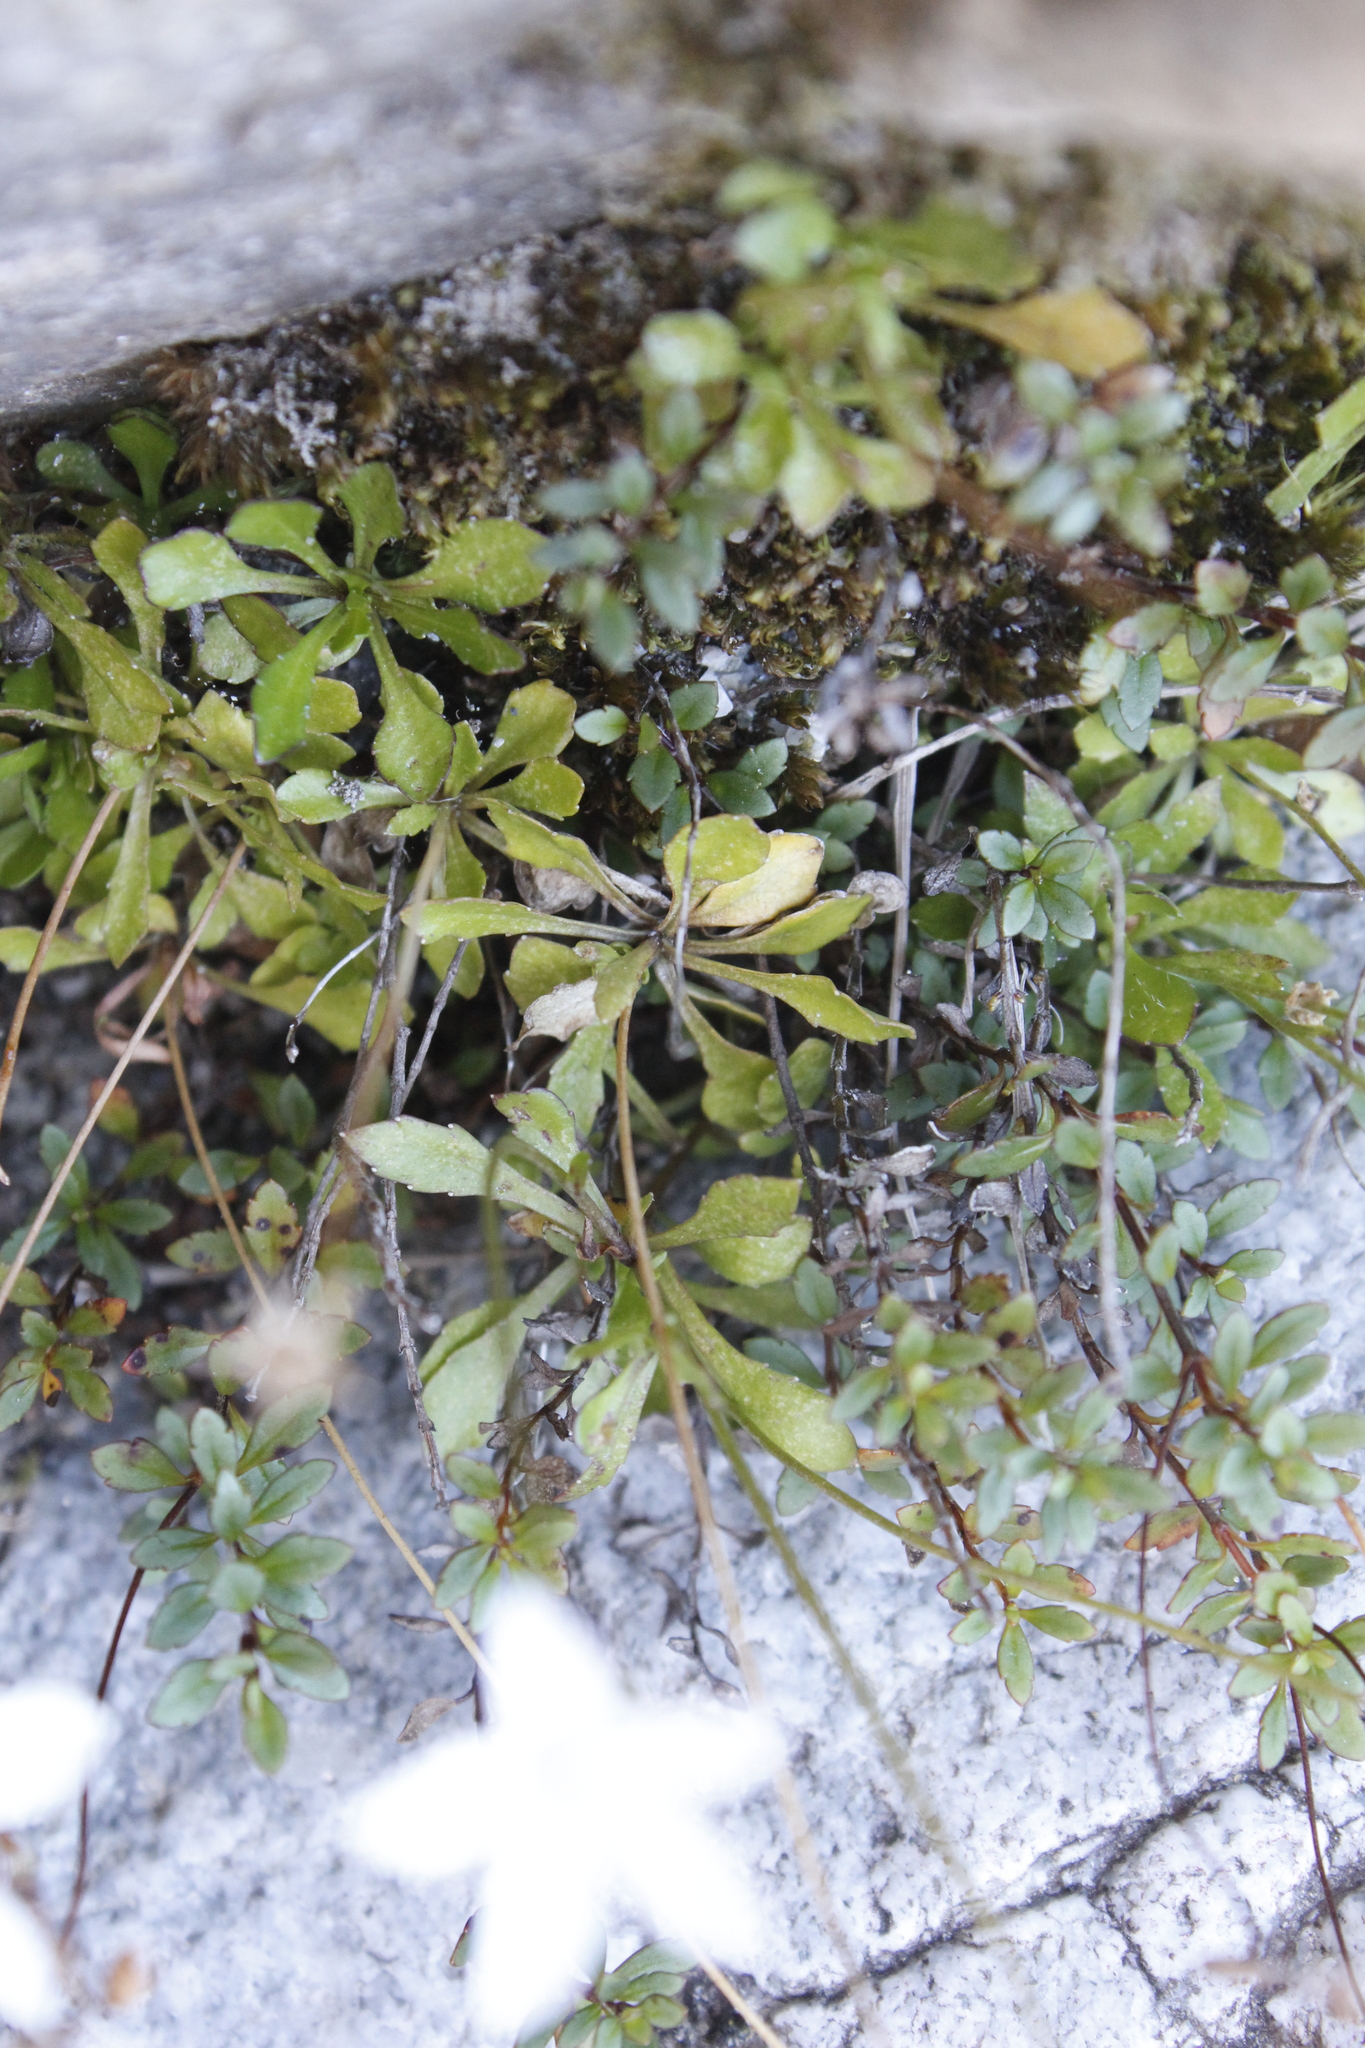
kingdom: Plantae
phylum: Tracheophyta
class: Magnoliopsida
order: Asterales
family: Campanulaceae
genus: Wahlenbergia
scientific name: Wahlenbergia albomarginata
